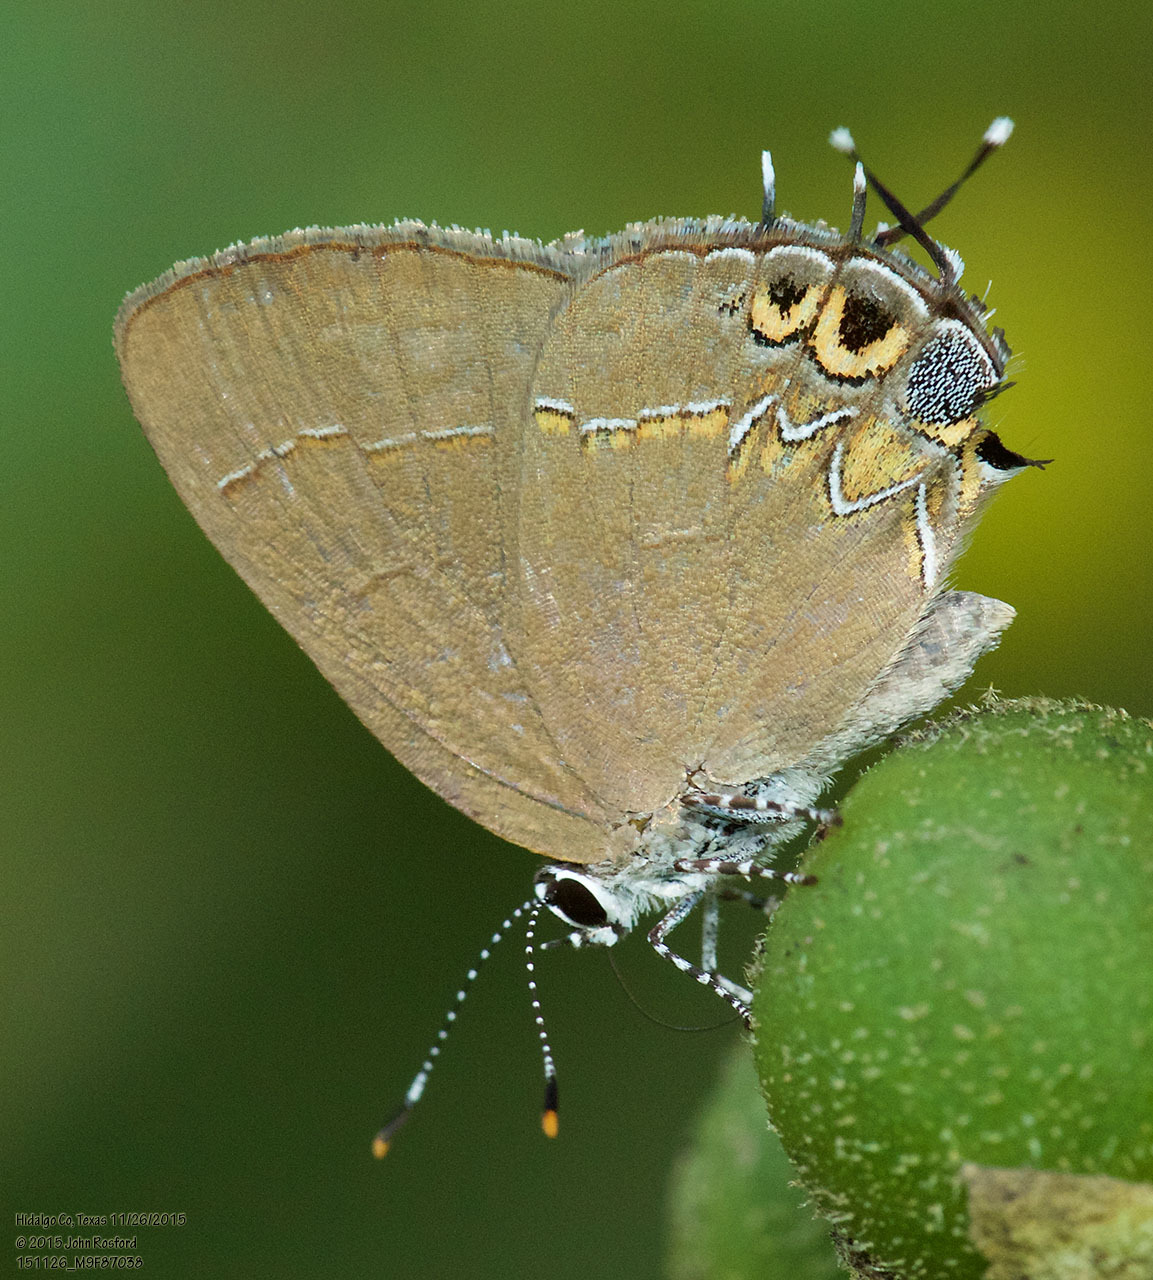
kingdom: Animalia
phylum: Arthropoda
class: Insecta
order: Lepidoptera
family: Lycaenidae
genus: Calycopis
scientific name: Calycopis isobeon
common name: Dusky-blue groundstreak
